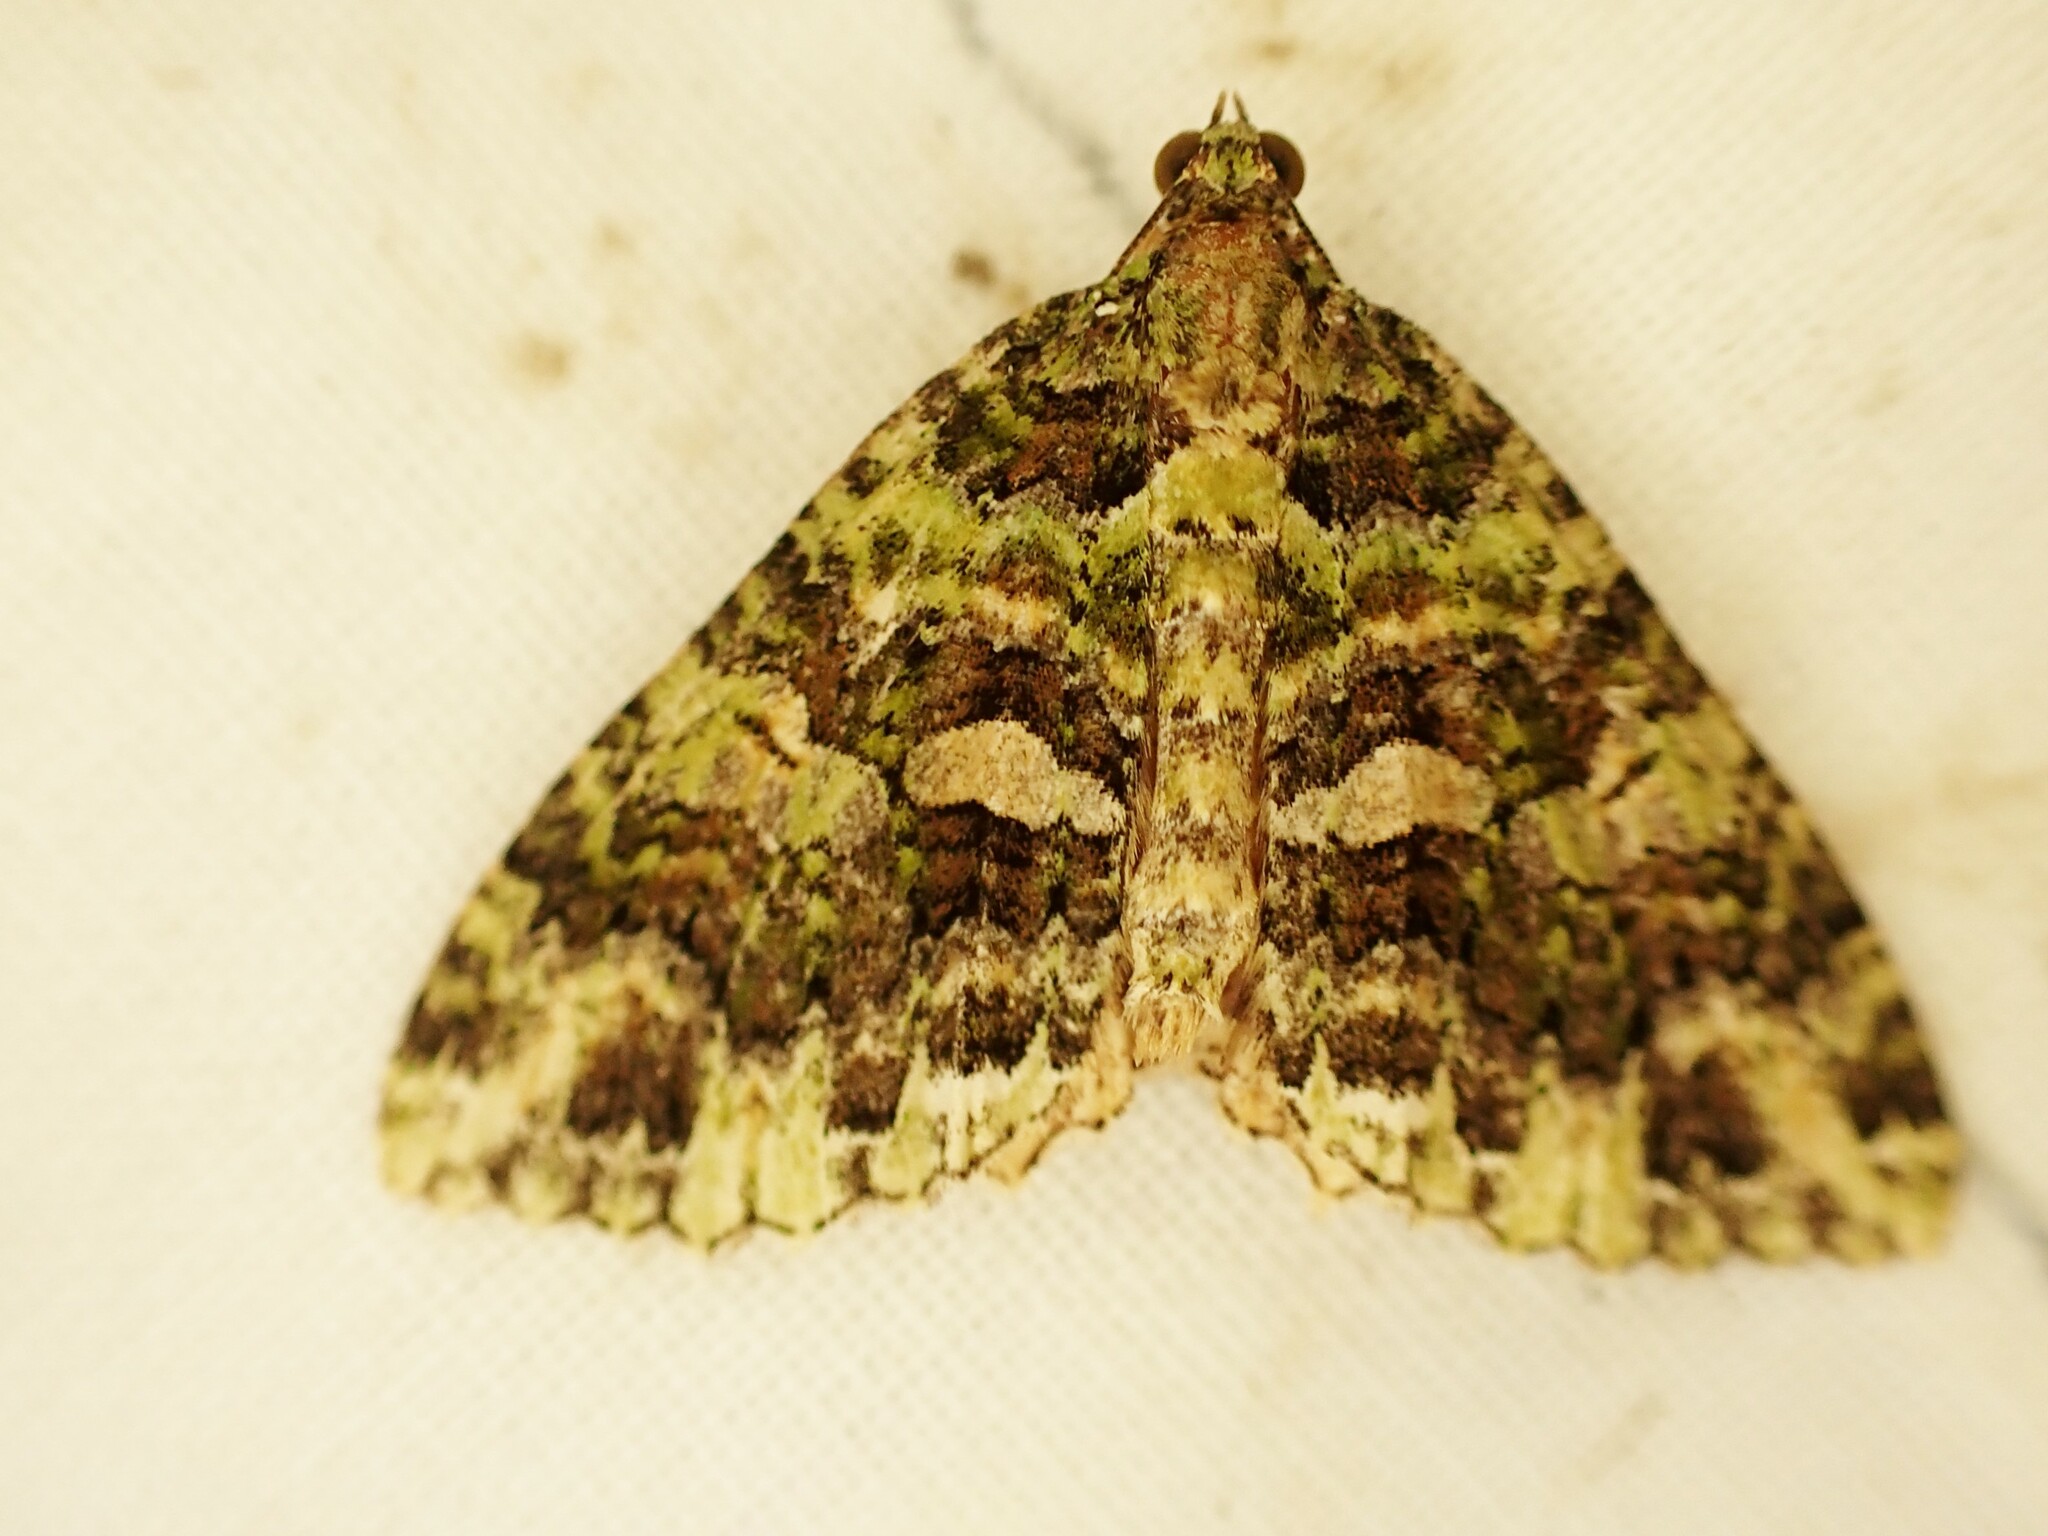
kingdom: Animalia
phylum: Arthropoda
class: Insecta
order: Lepidoptera
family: Geometridae
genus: Austrocidaria
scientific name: Austrocidaria similata
